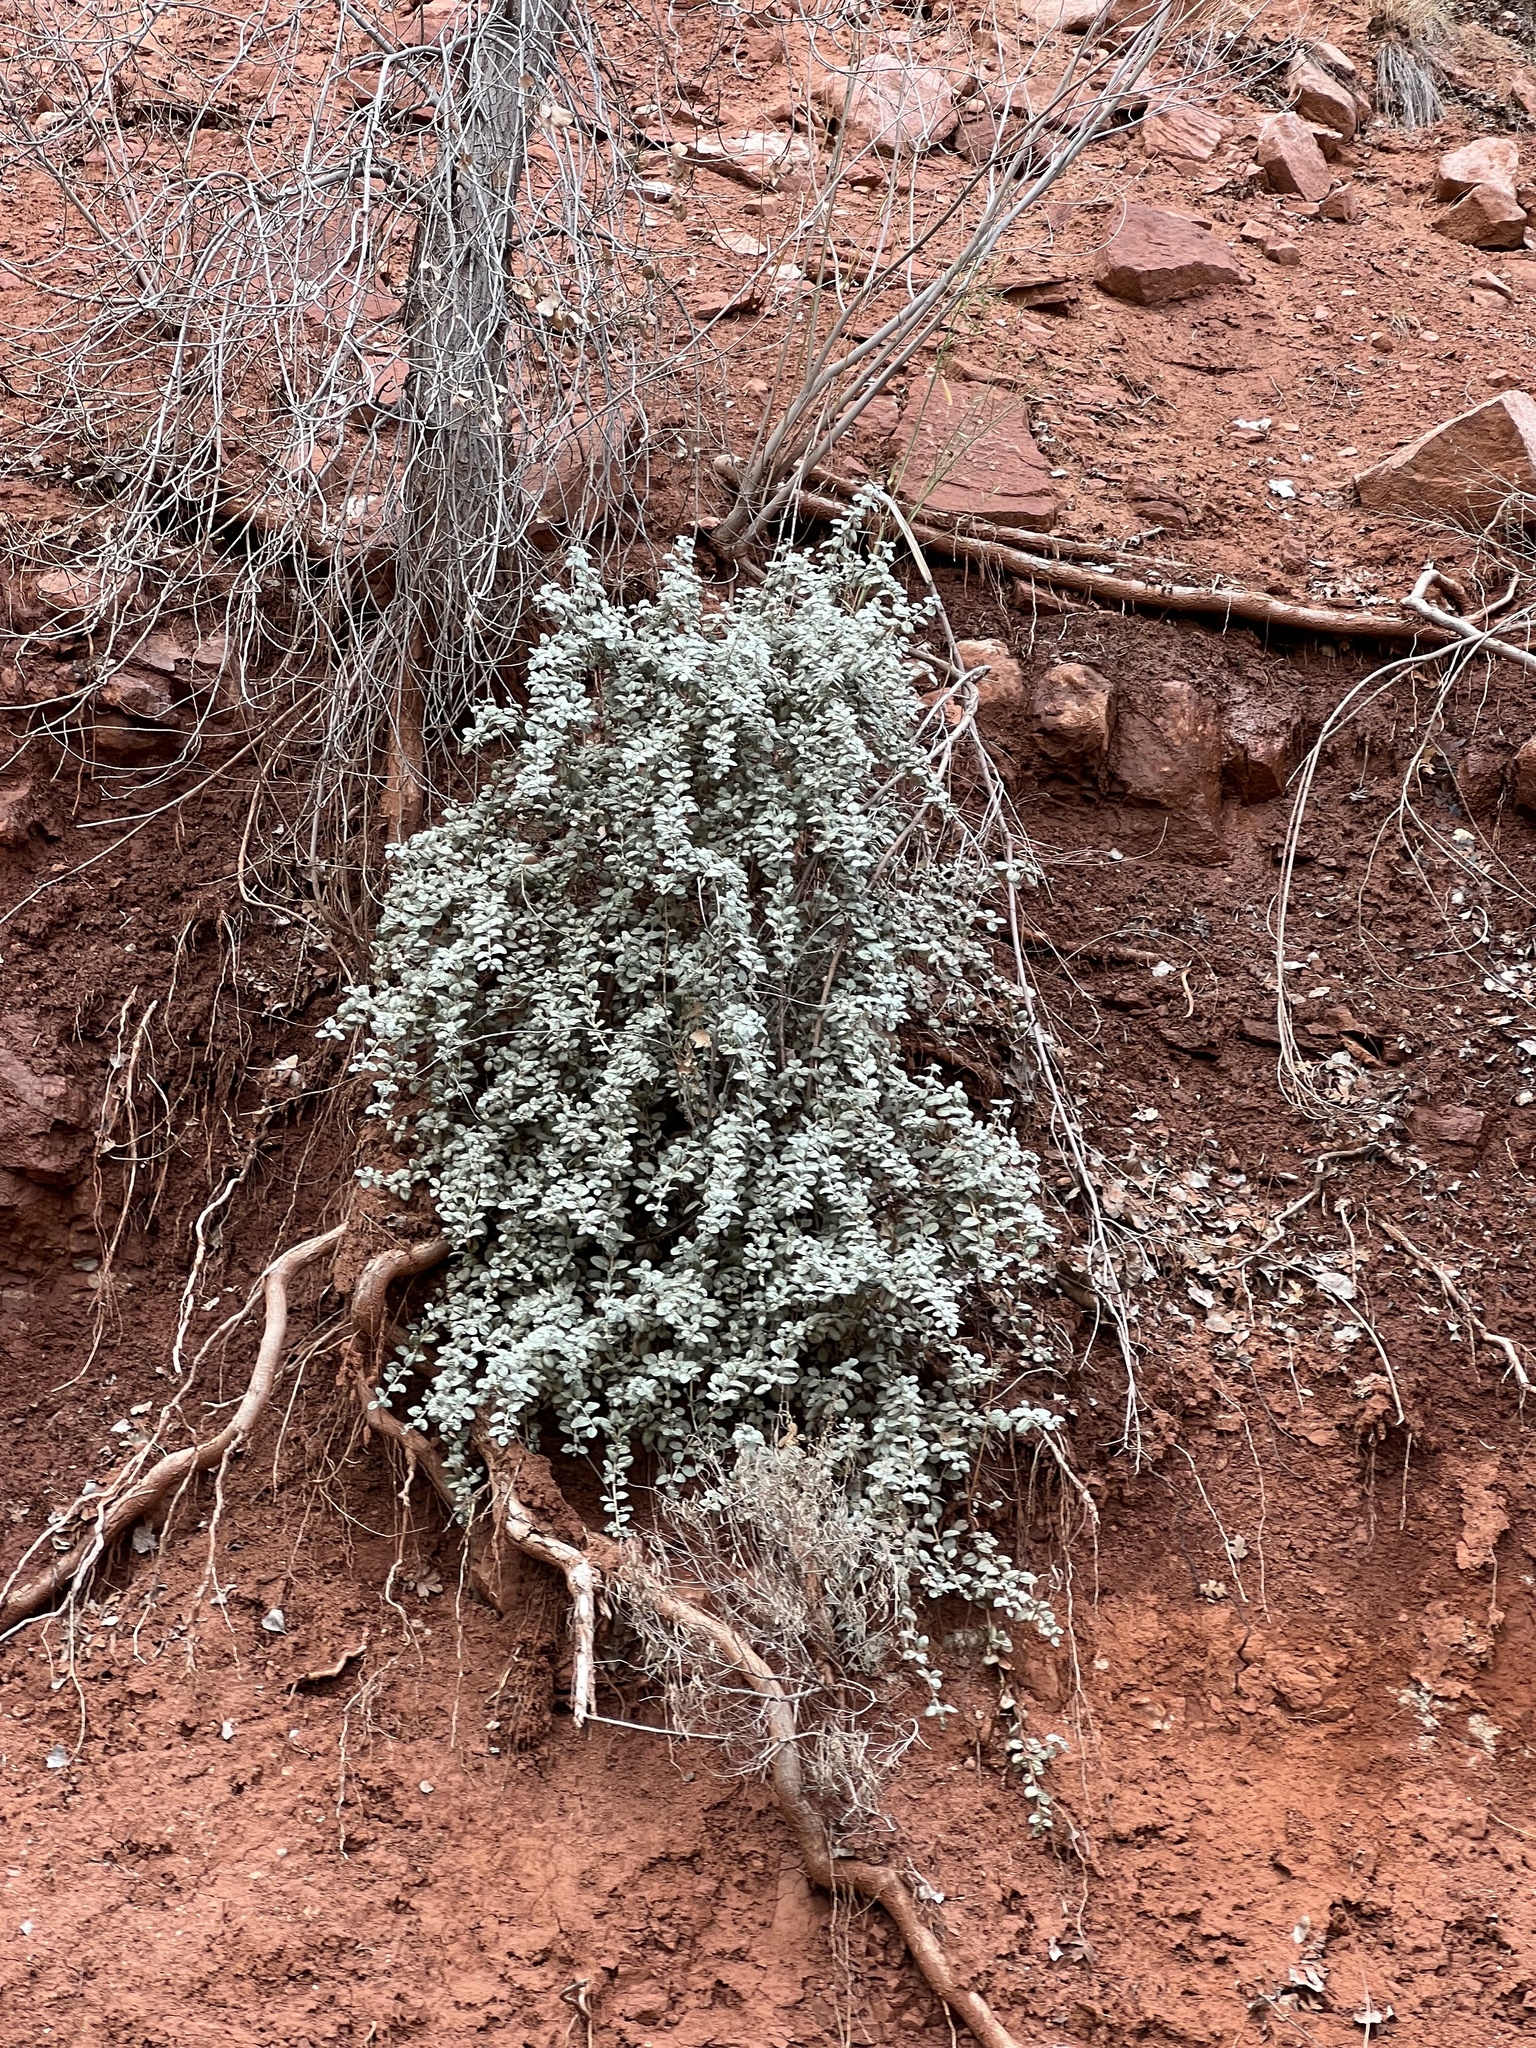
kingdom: Plantae
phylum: Tracheophyta
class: Magnoliopsida
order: Rosales
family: Elaeagnaceae
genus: Shepherdia
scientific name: Shepherdia rotundifolia
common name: Silverscale
